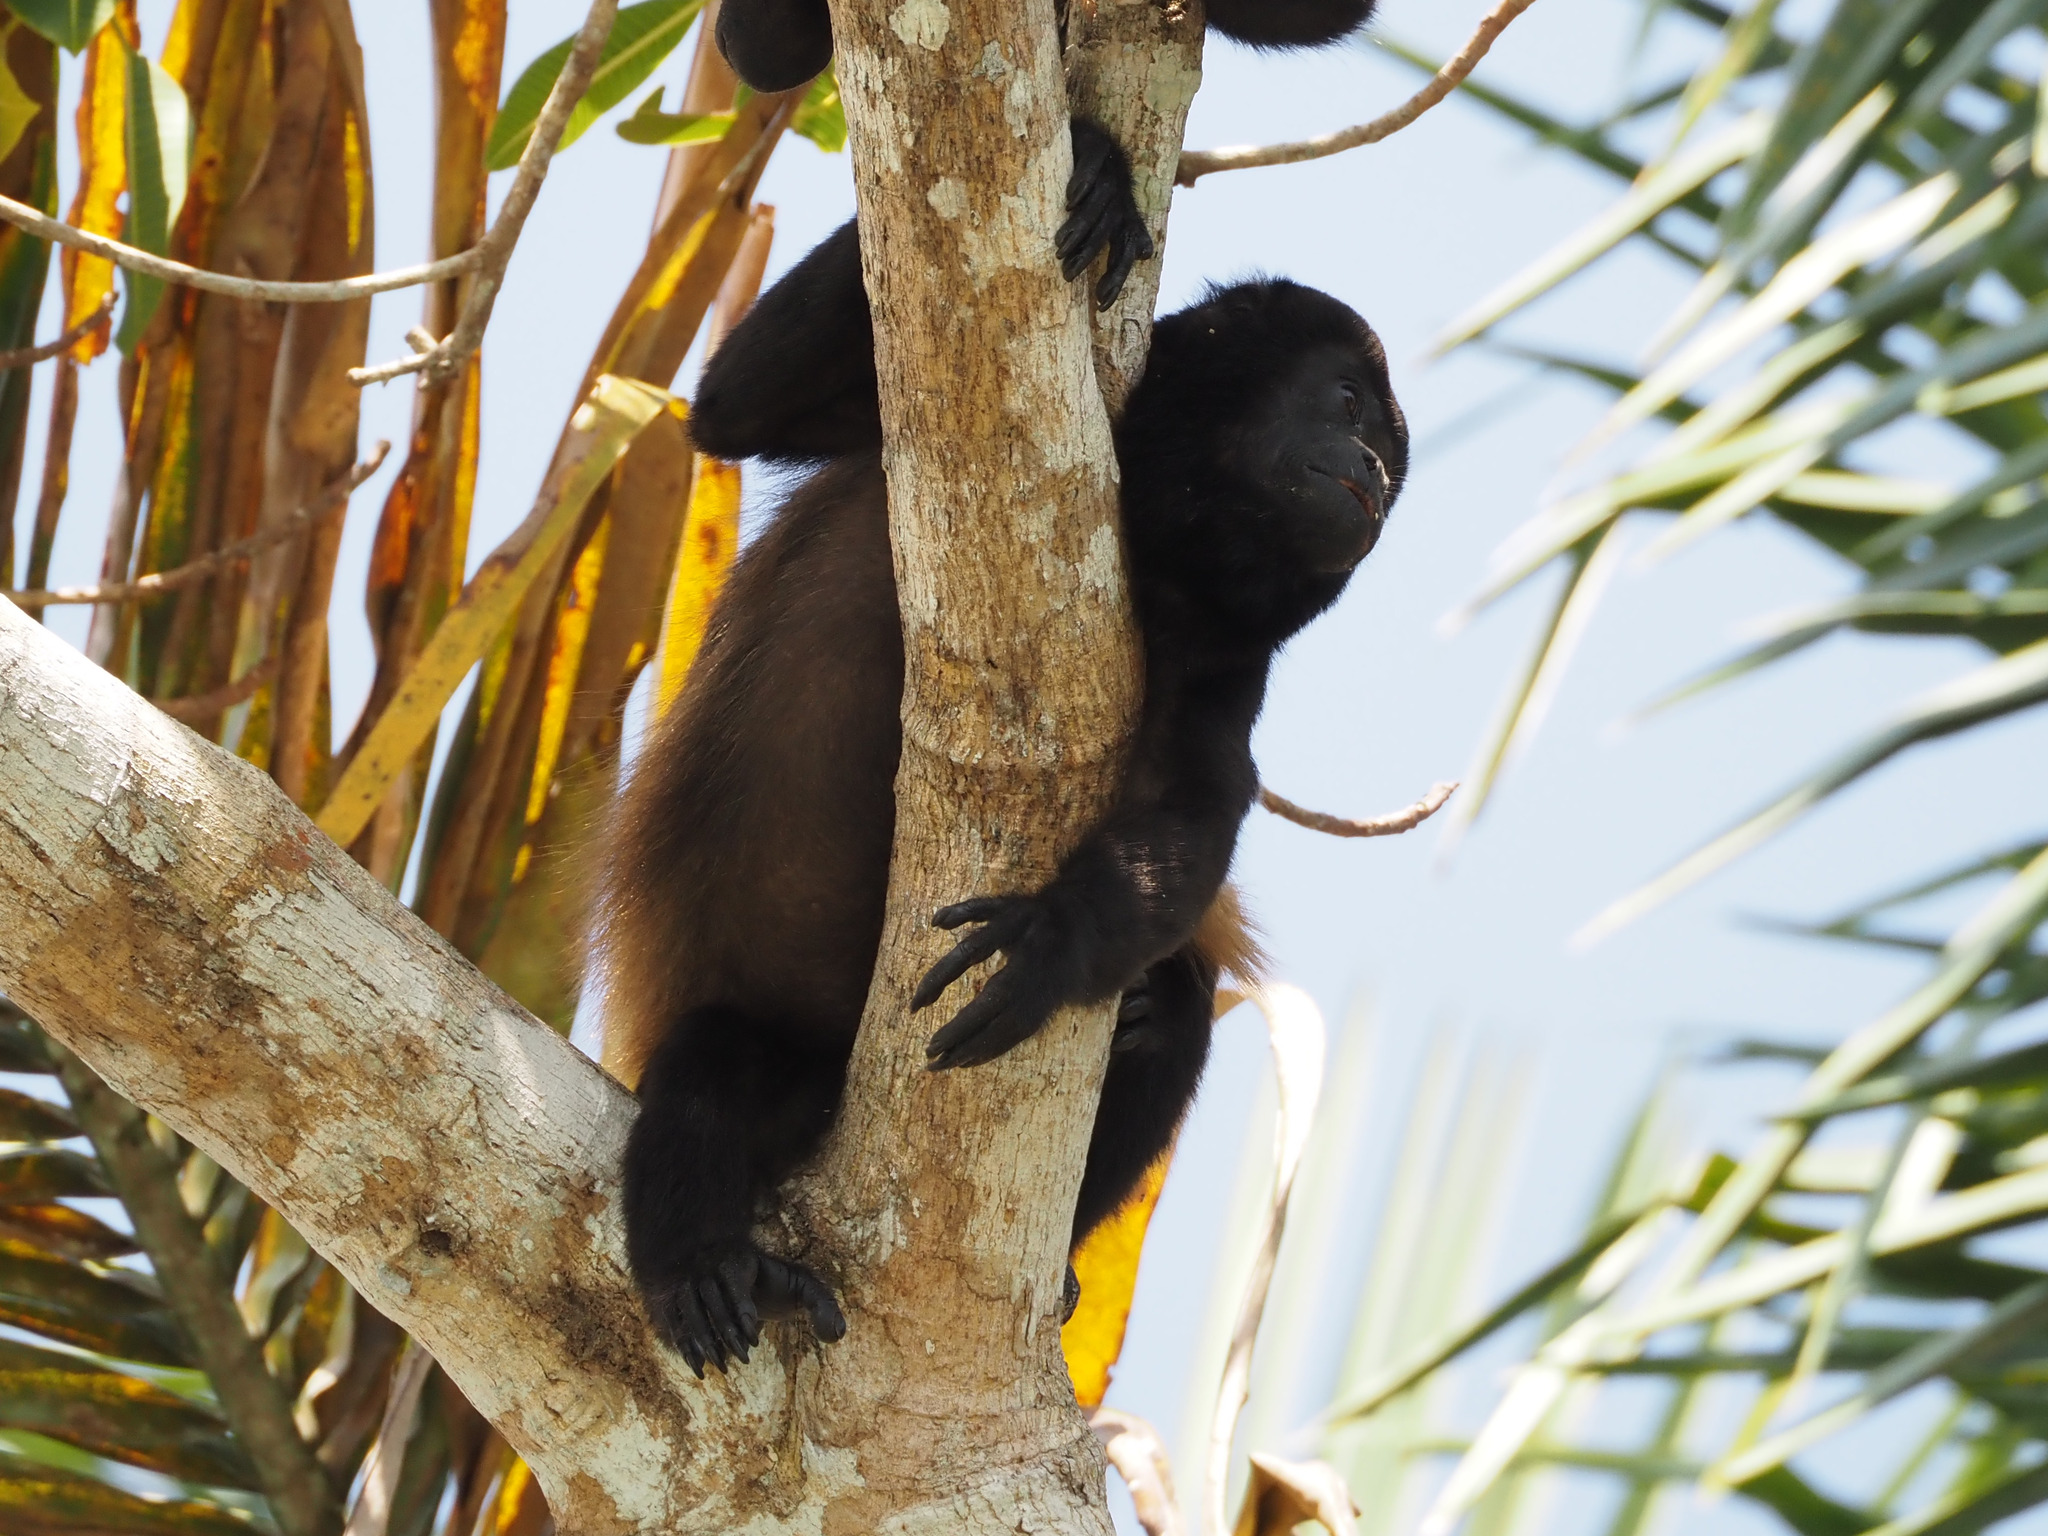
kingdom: Animalia
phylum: Chordata
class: Mammalia
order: Primates
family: Atelidae
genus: Alouatta
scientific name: Alouatta palliata
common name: Mantled howler
